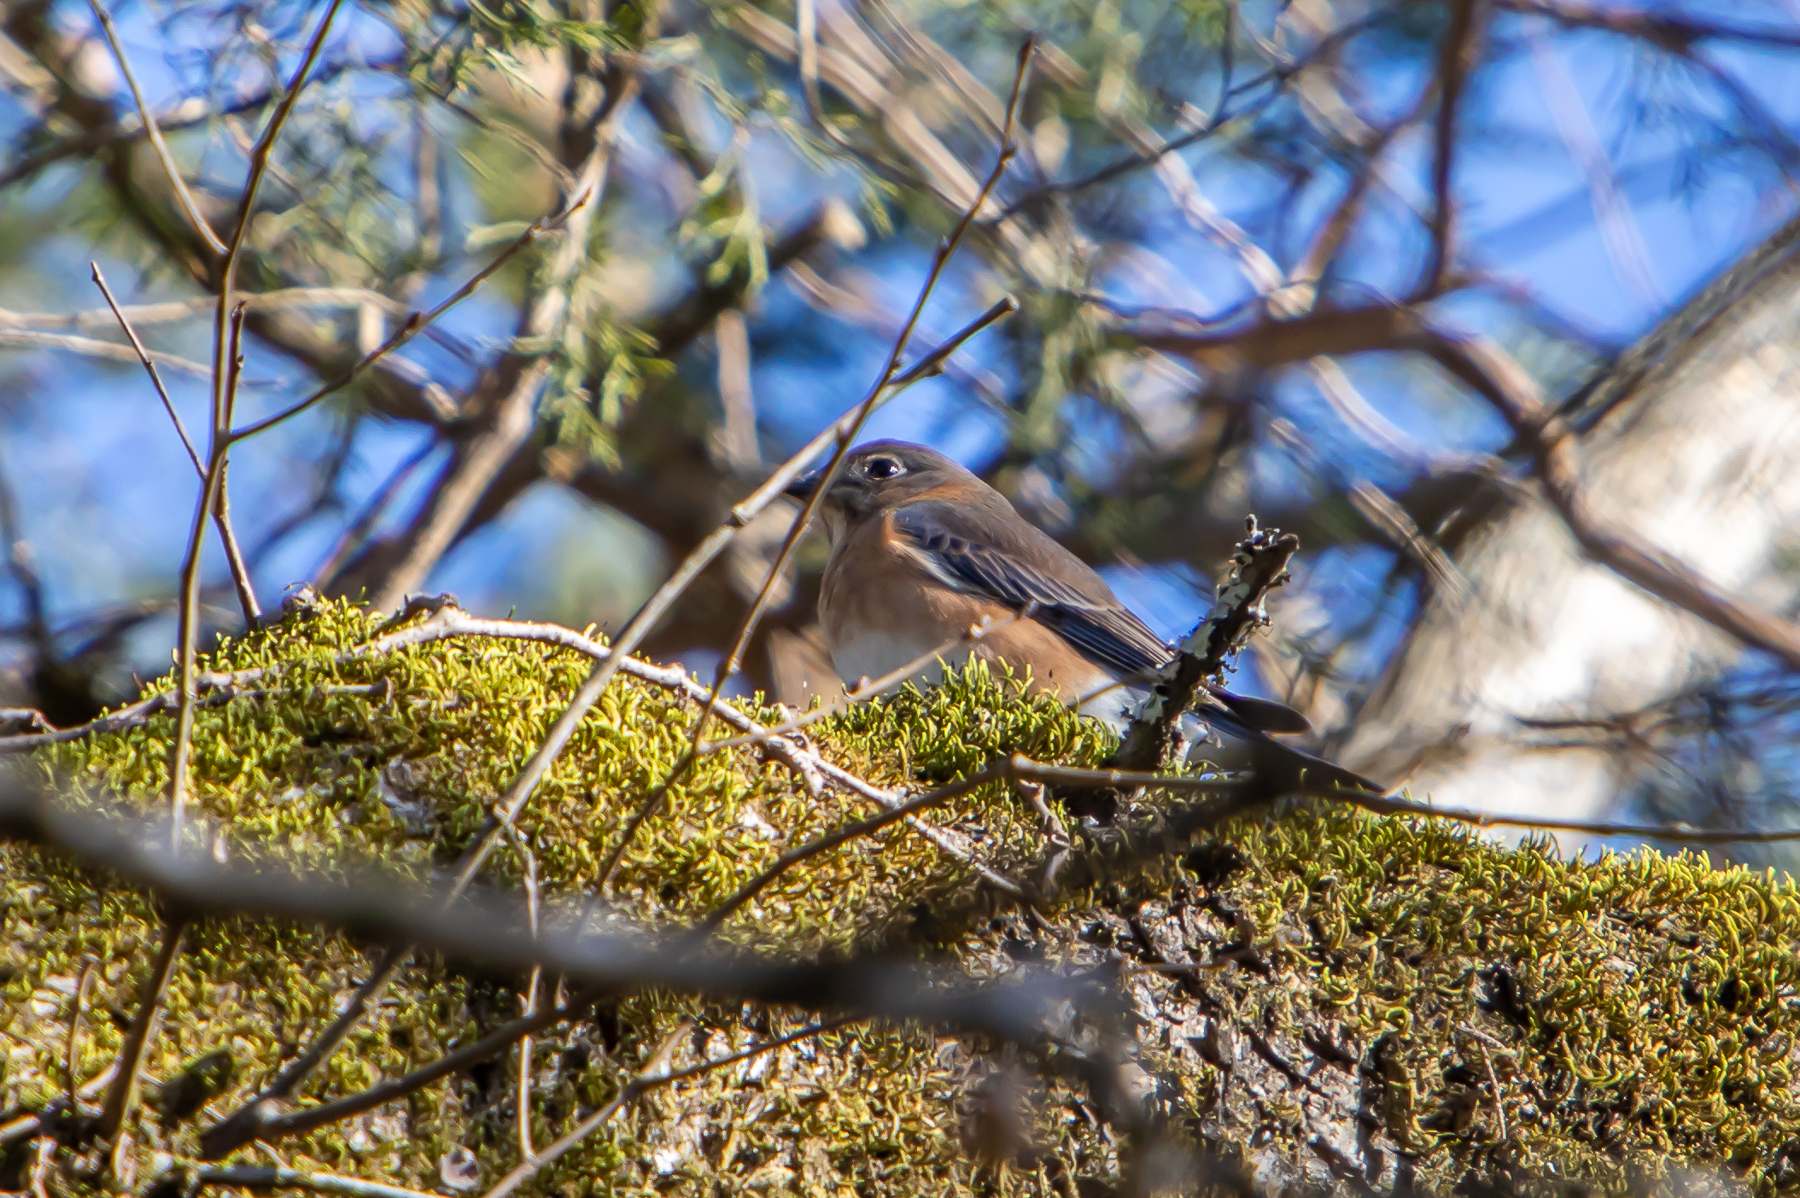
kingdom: Animalia
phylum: Chordata
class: Aves
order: Passeriformes
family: Turdidae
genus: Sialia
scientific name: Sialia sialis
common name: Eastern bluebird
